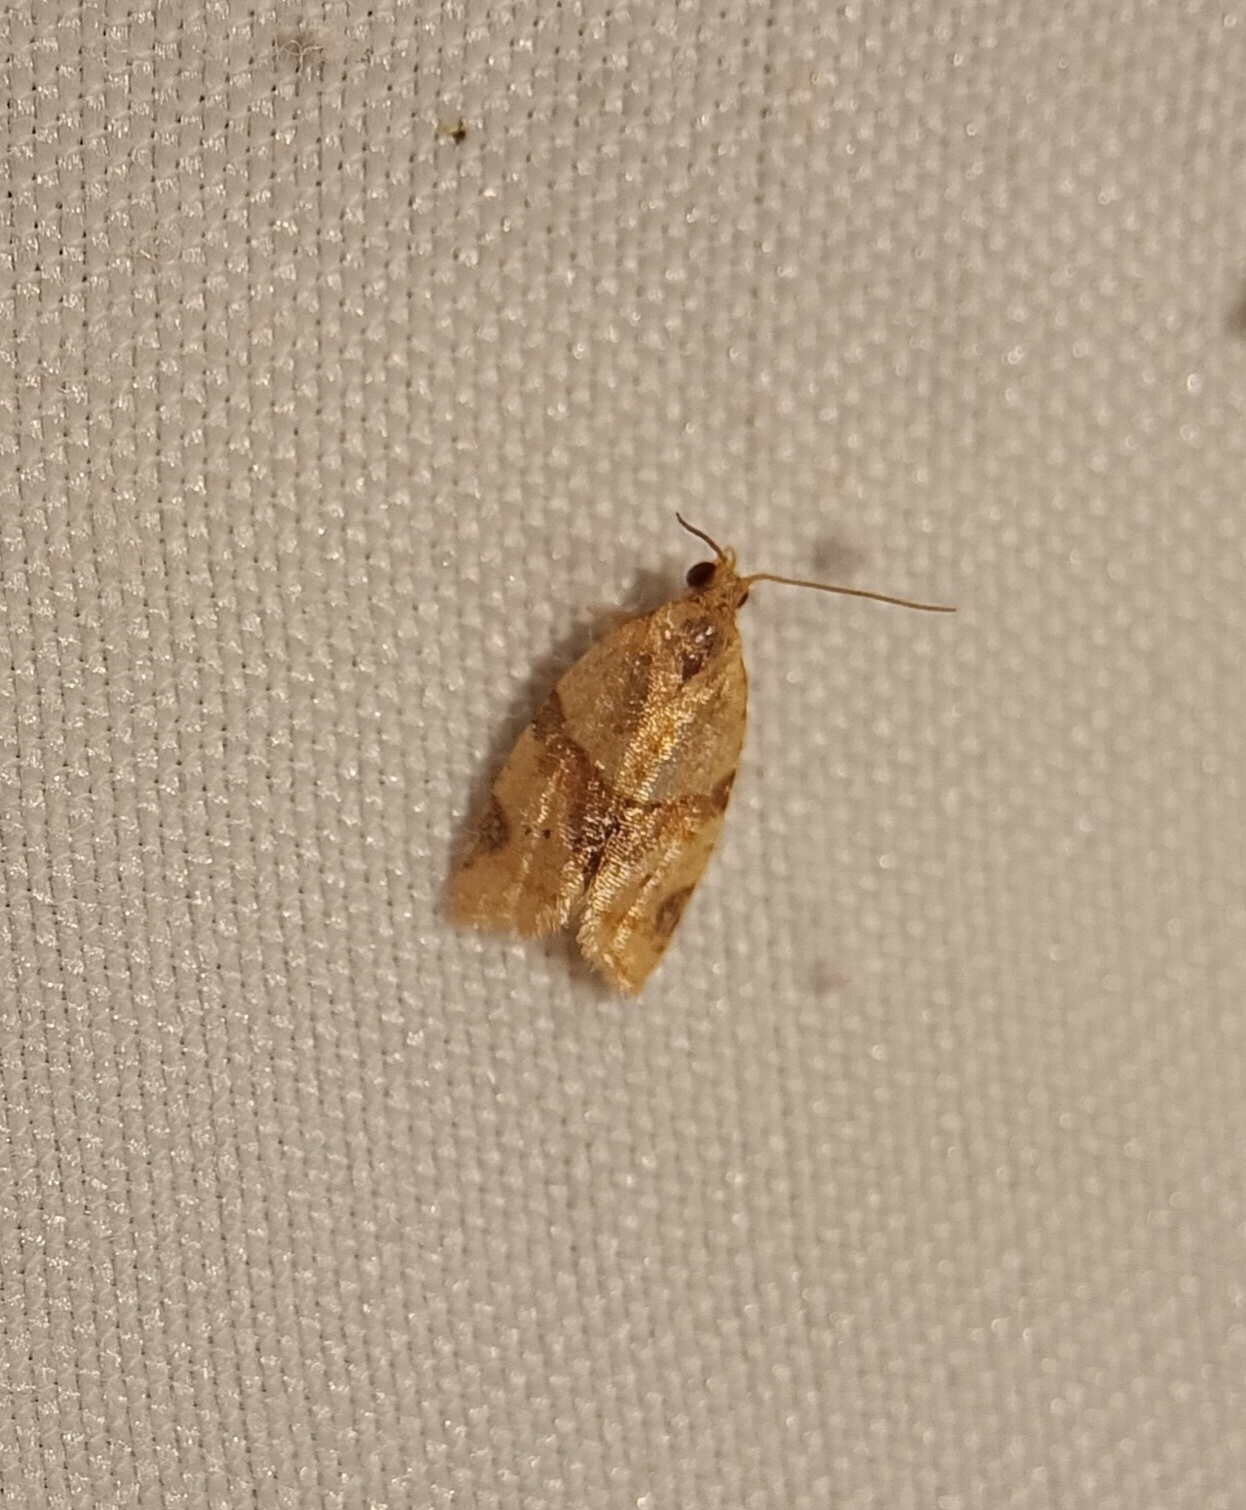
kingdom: Animalia
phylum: Arthropoda
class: Insecta
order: Lepidoptera
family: Tortricidae
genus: Clepsis
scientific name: Clepsis peritana
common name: Garden tortrix
